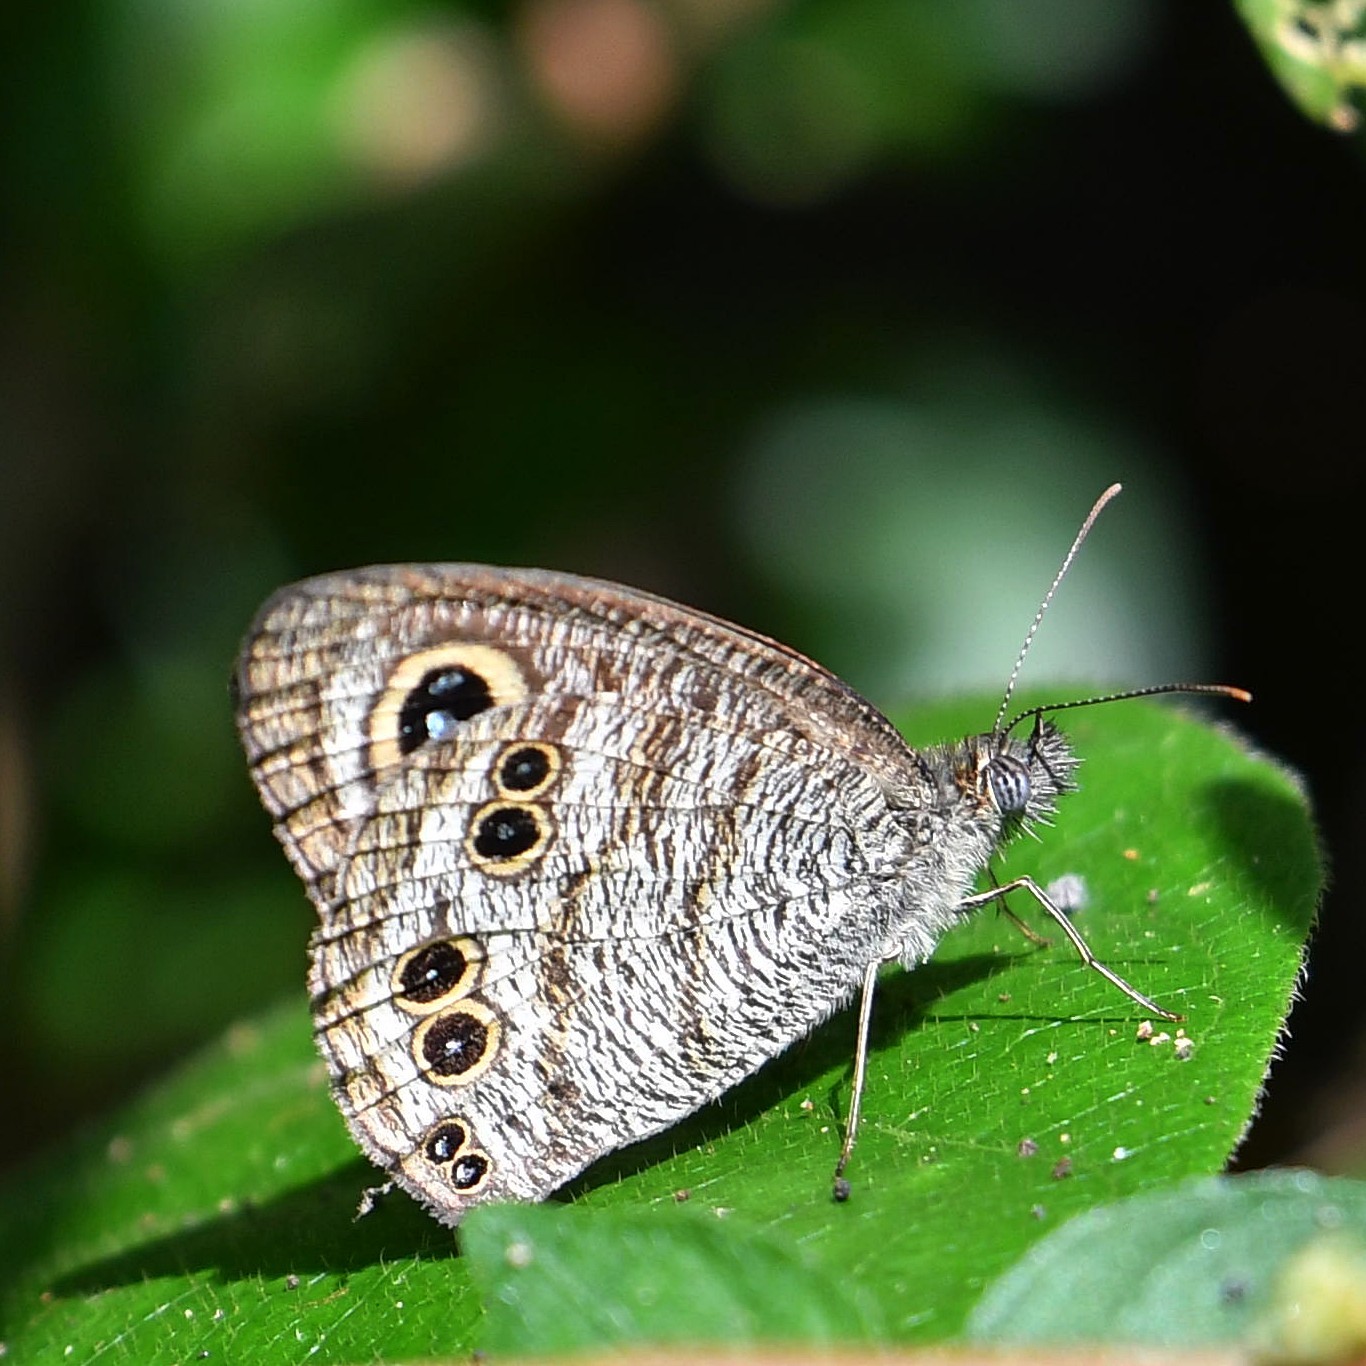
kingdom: Animalia
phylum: Arthropoda
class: Insecta
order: Lepidoptera
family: Nymphalidae
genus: Ypthima
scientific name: Ypthima baldus
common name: Common five-ring
